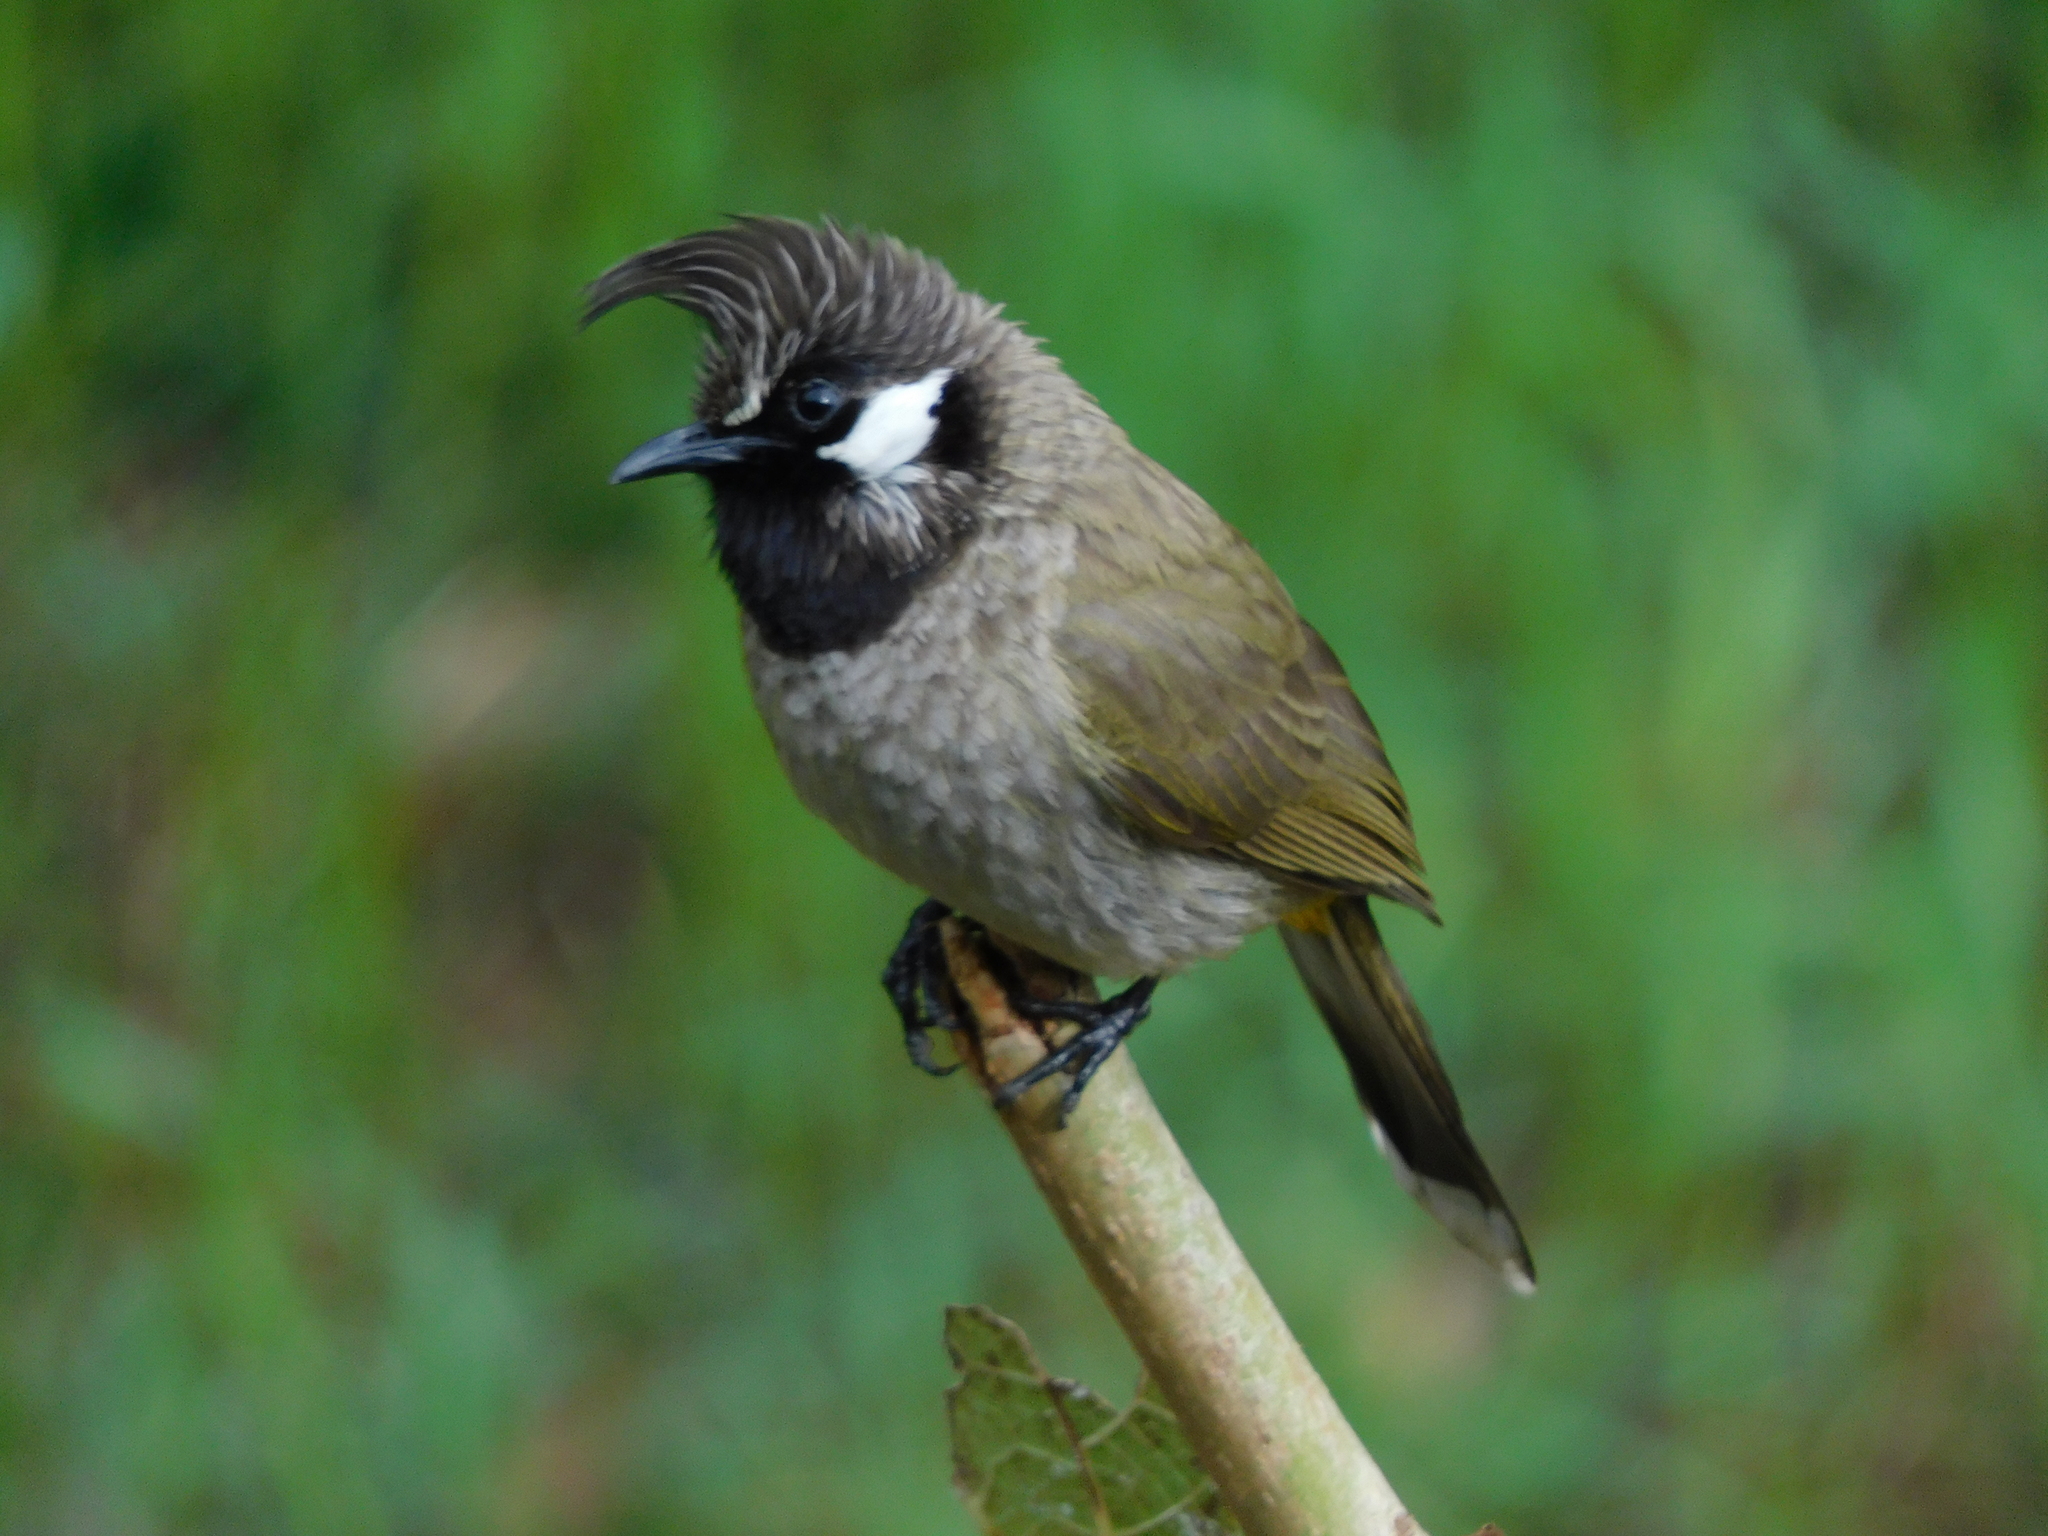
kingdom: Animalia
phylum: Chordata
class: Aves
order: Passeriformes
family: Pycnonotidae
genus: Pycnonotus
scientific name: Pycnonotus leucogenys
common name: Himalayan bulbul
